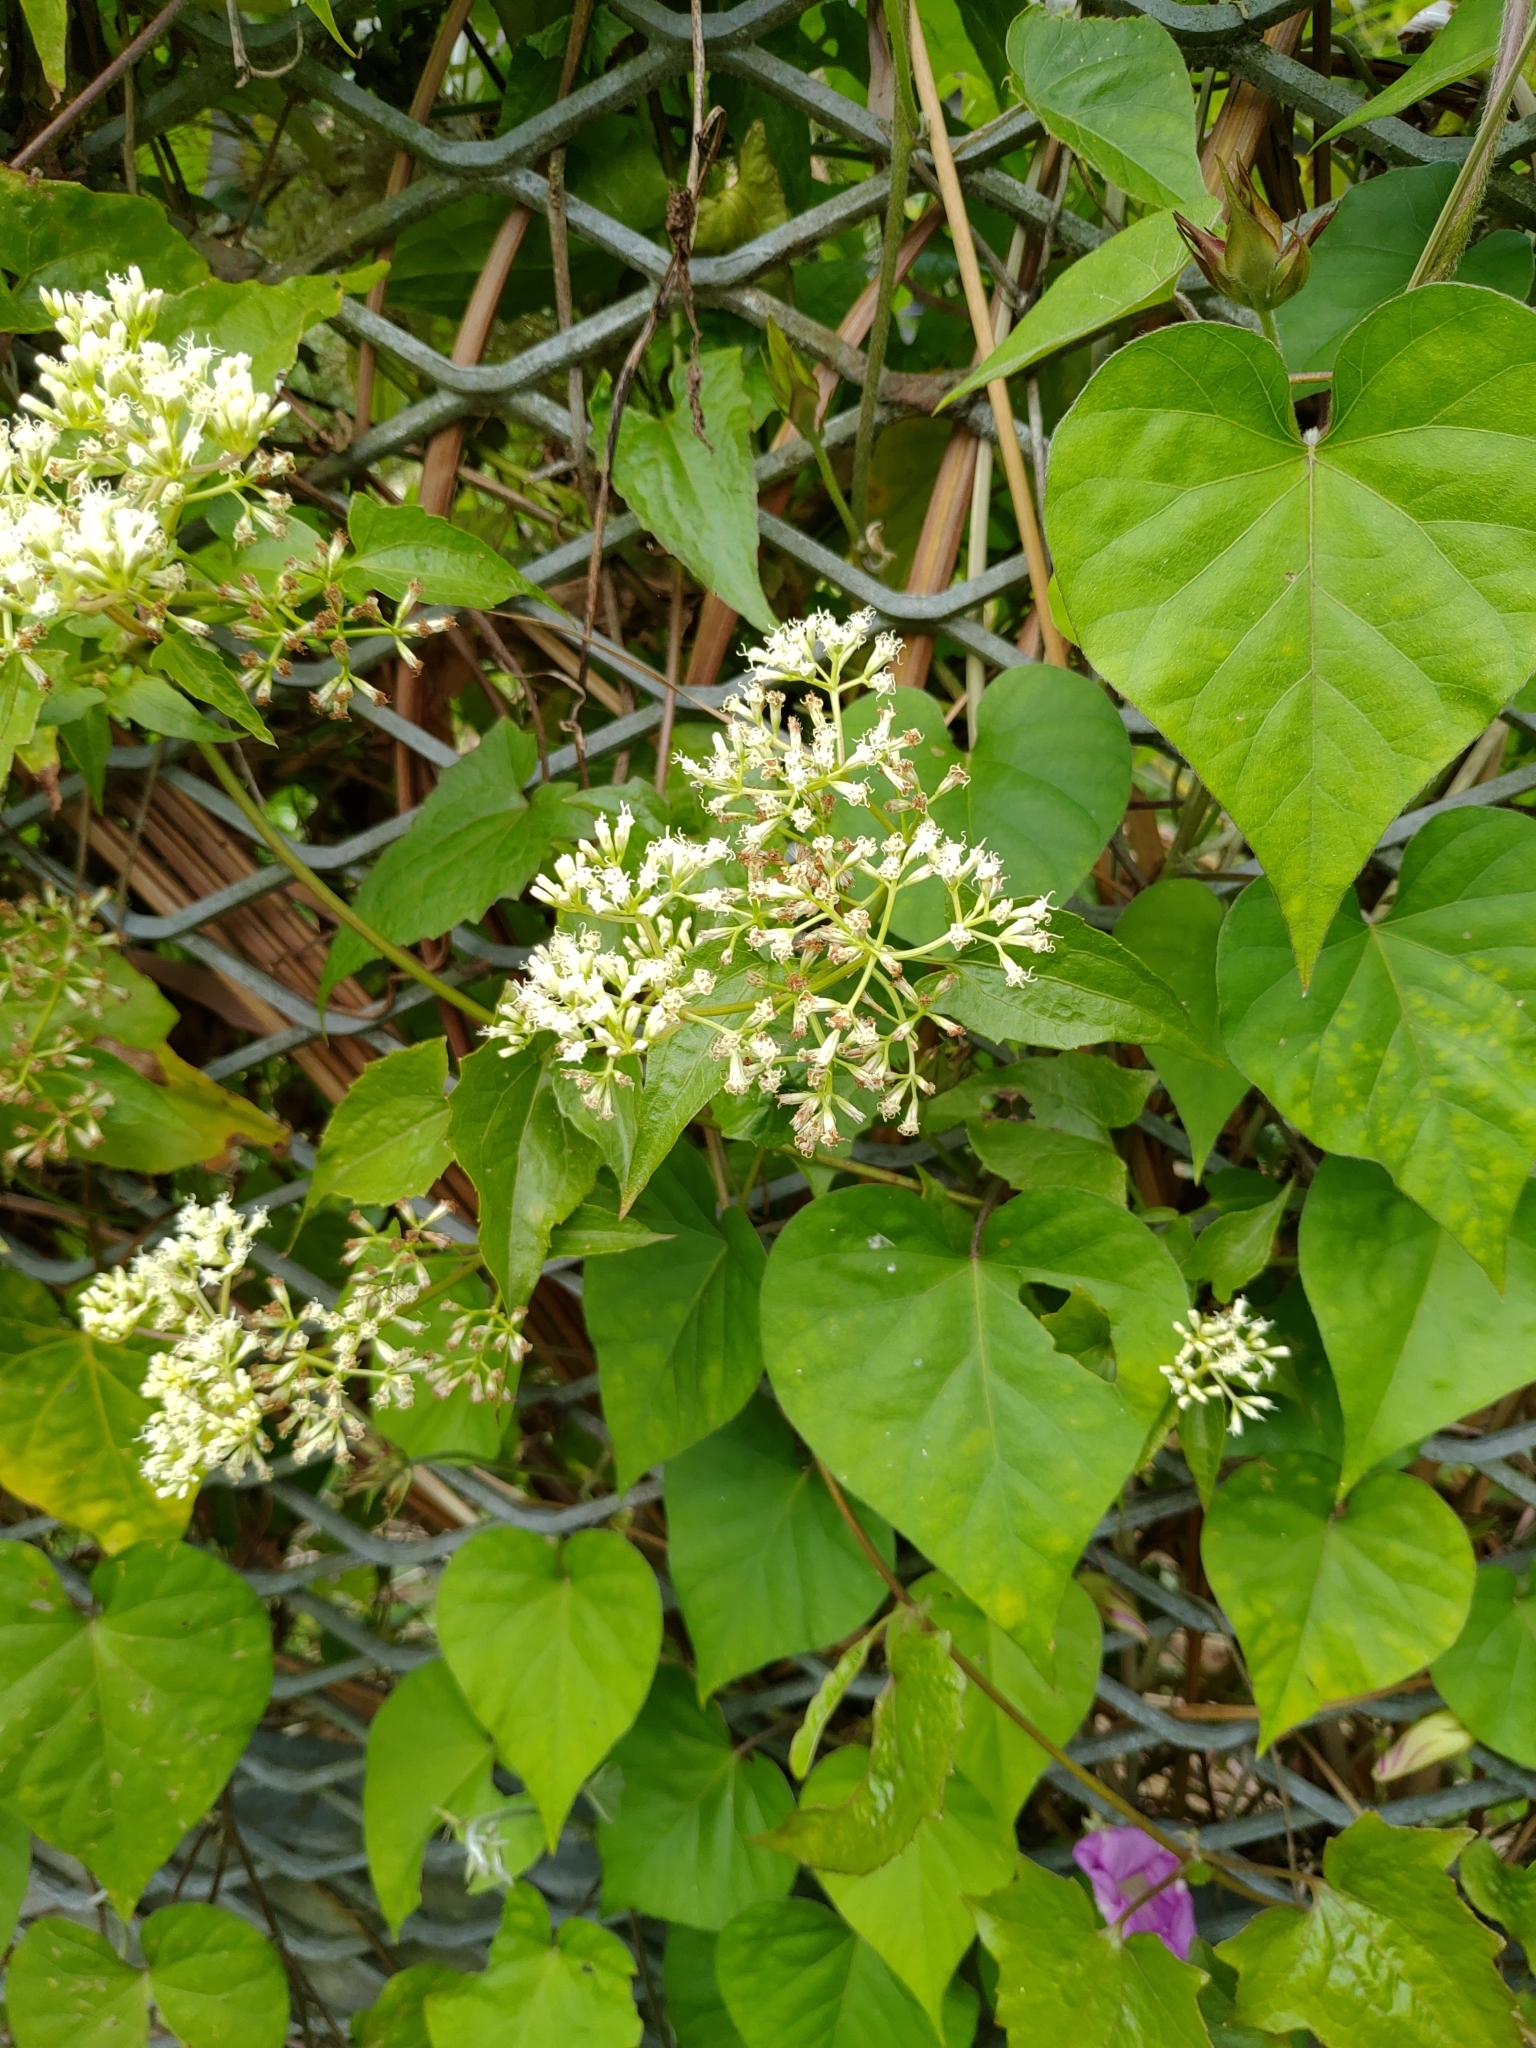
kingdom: Plantae
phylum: Tracheophyta
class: Magnoliopsida
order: Asterales
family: Asteraceae
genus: Mikania
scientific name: Mikania micrantha
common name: Mile-a-minute
